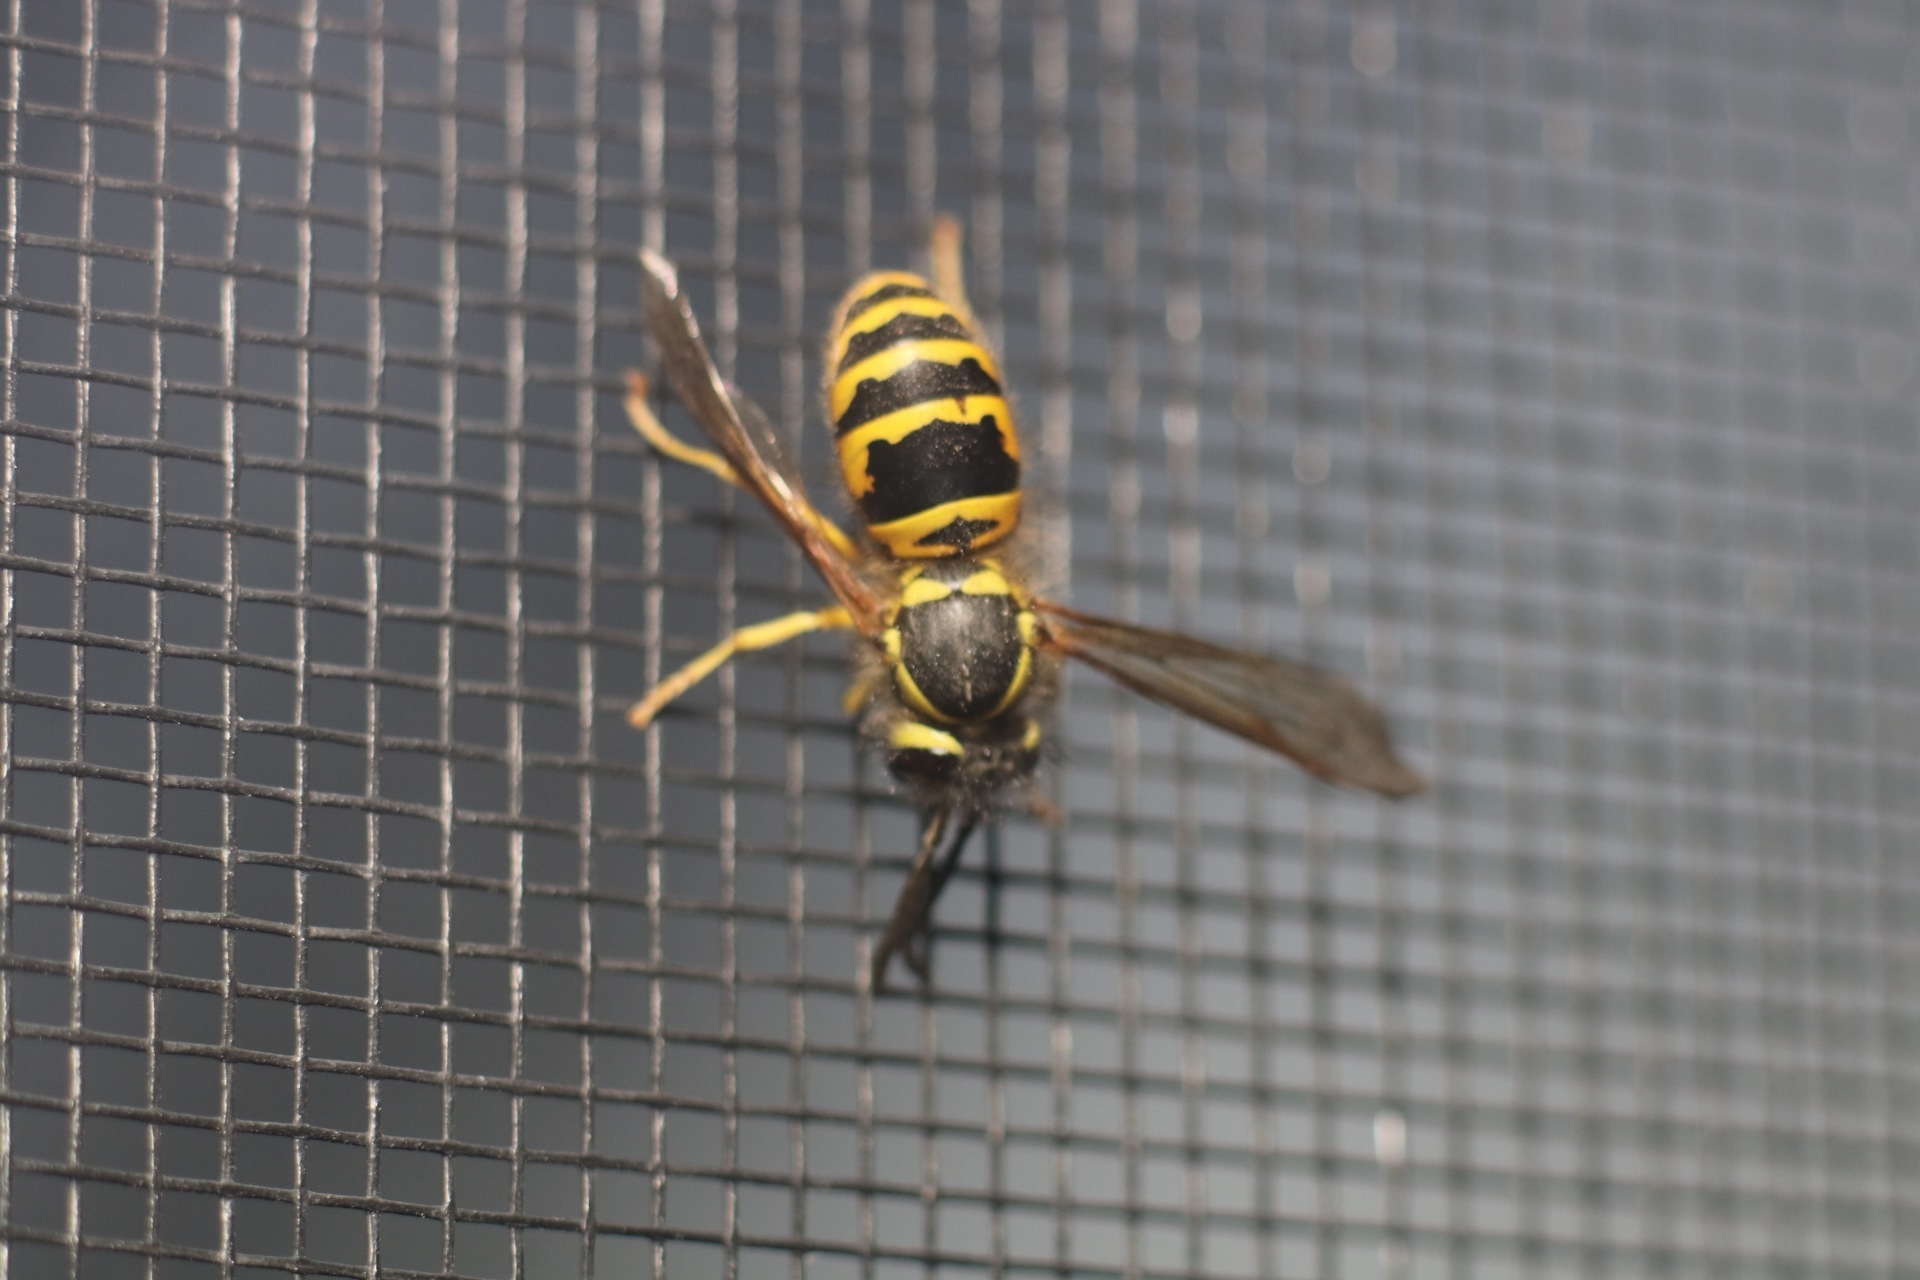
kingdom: Animalia
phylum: Arthropoda
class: Insecta
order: Hymenoptera
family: Vespidae
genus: Vespula
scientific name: Vespula maculifrons
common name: Eastern yellowjacket
